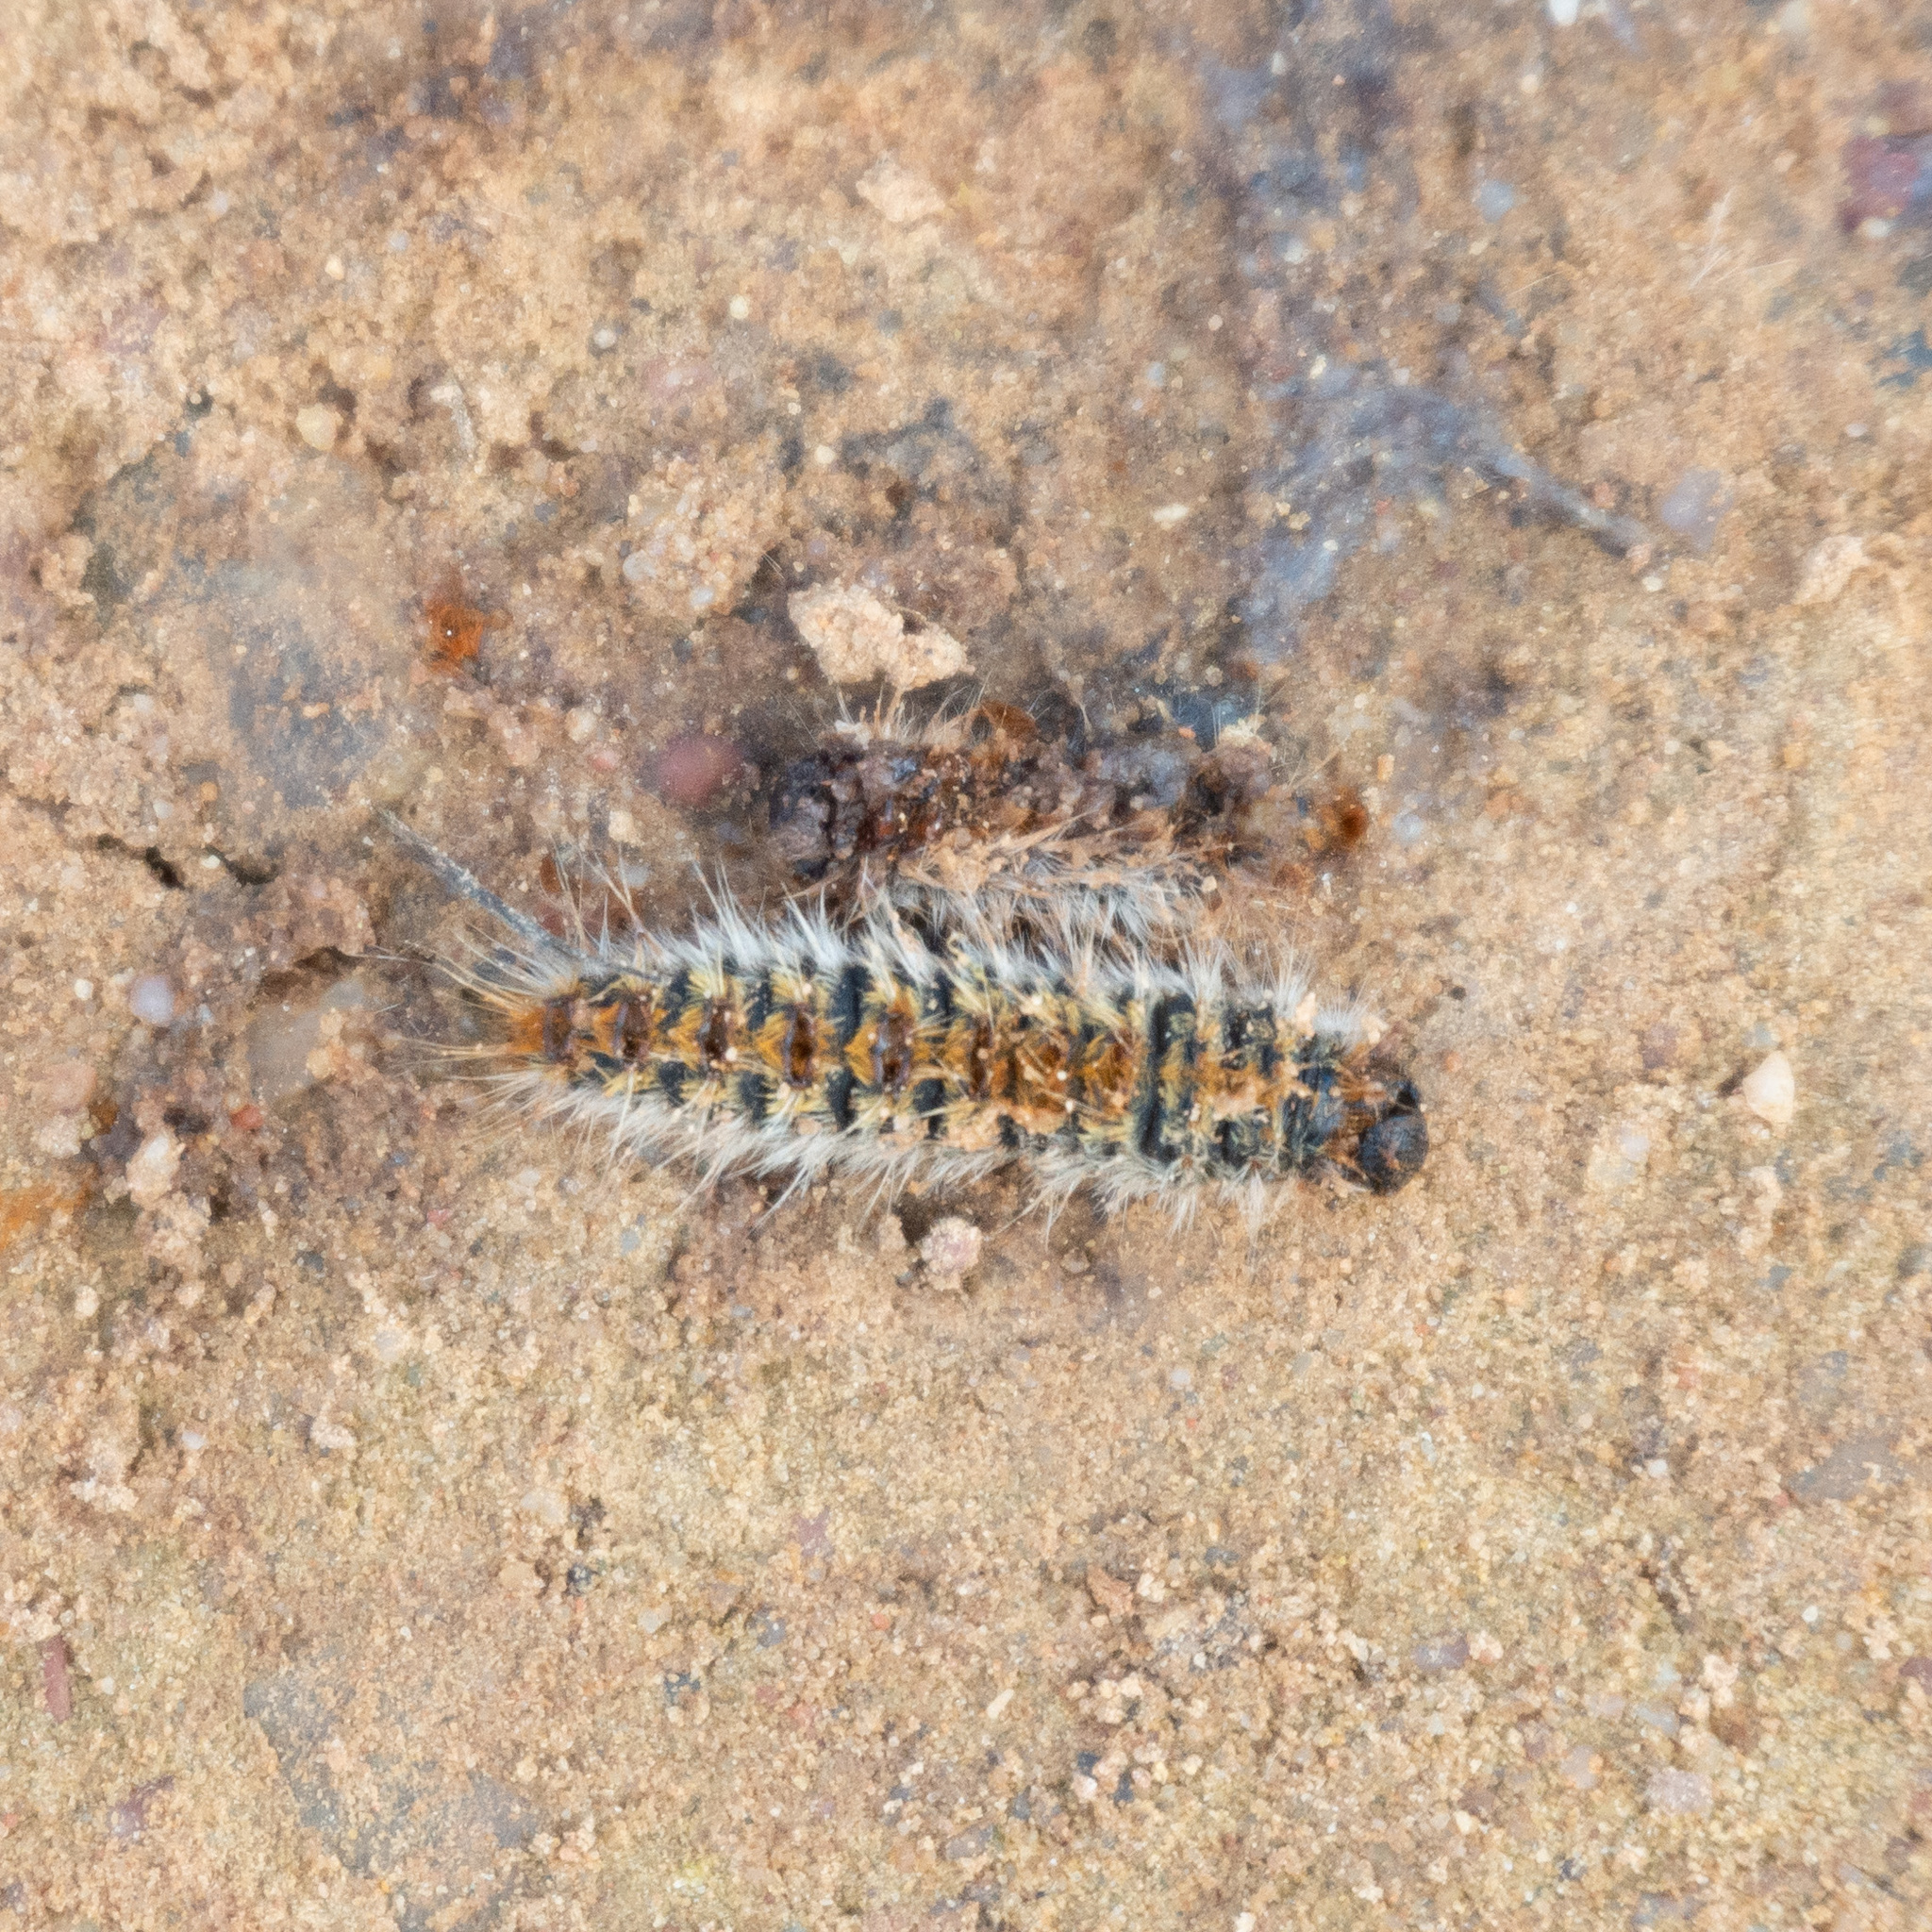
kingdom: Animalia
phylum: Arthropoda
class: Insecta
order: Lepidoptera
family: Notodontidae
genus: Thaumetopoea
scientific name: Thaumetopoea pityocampa
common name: Pine processionary
